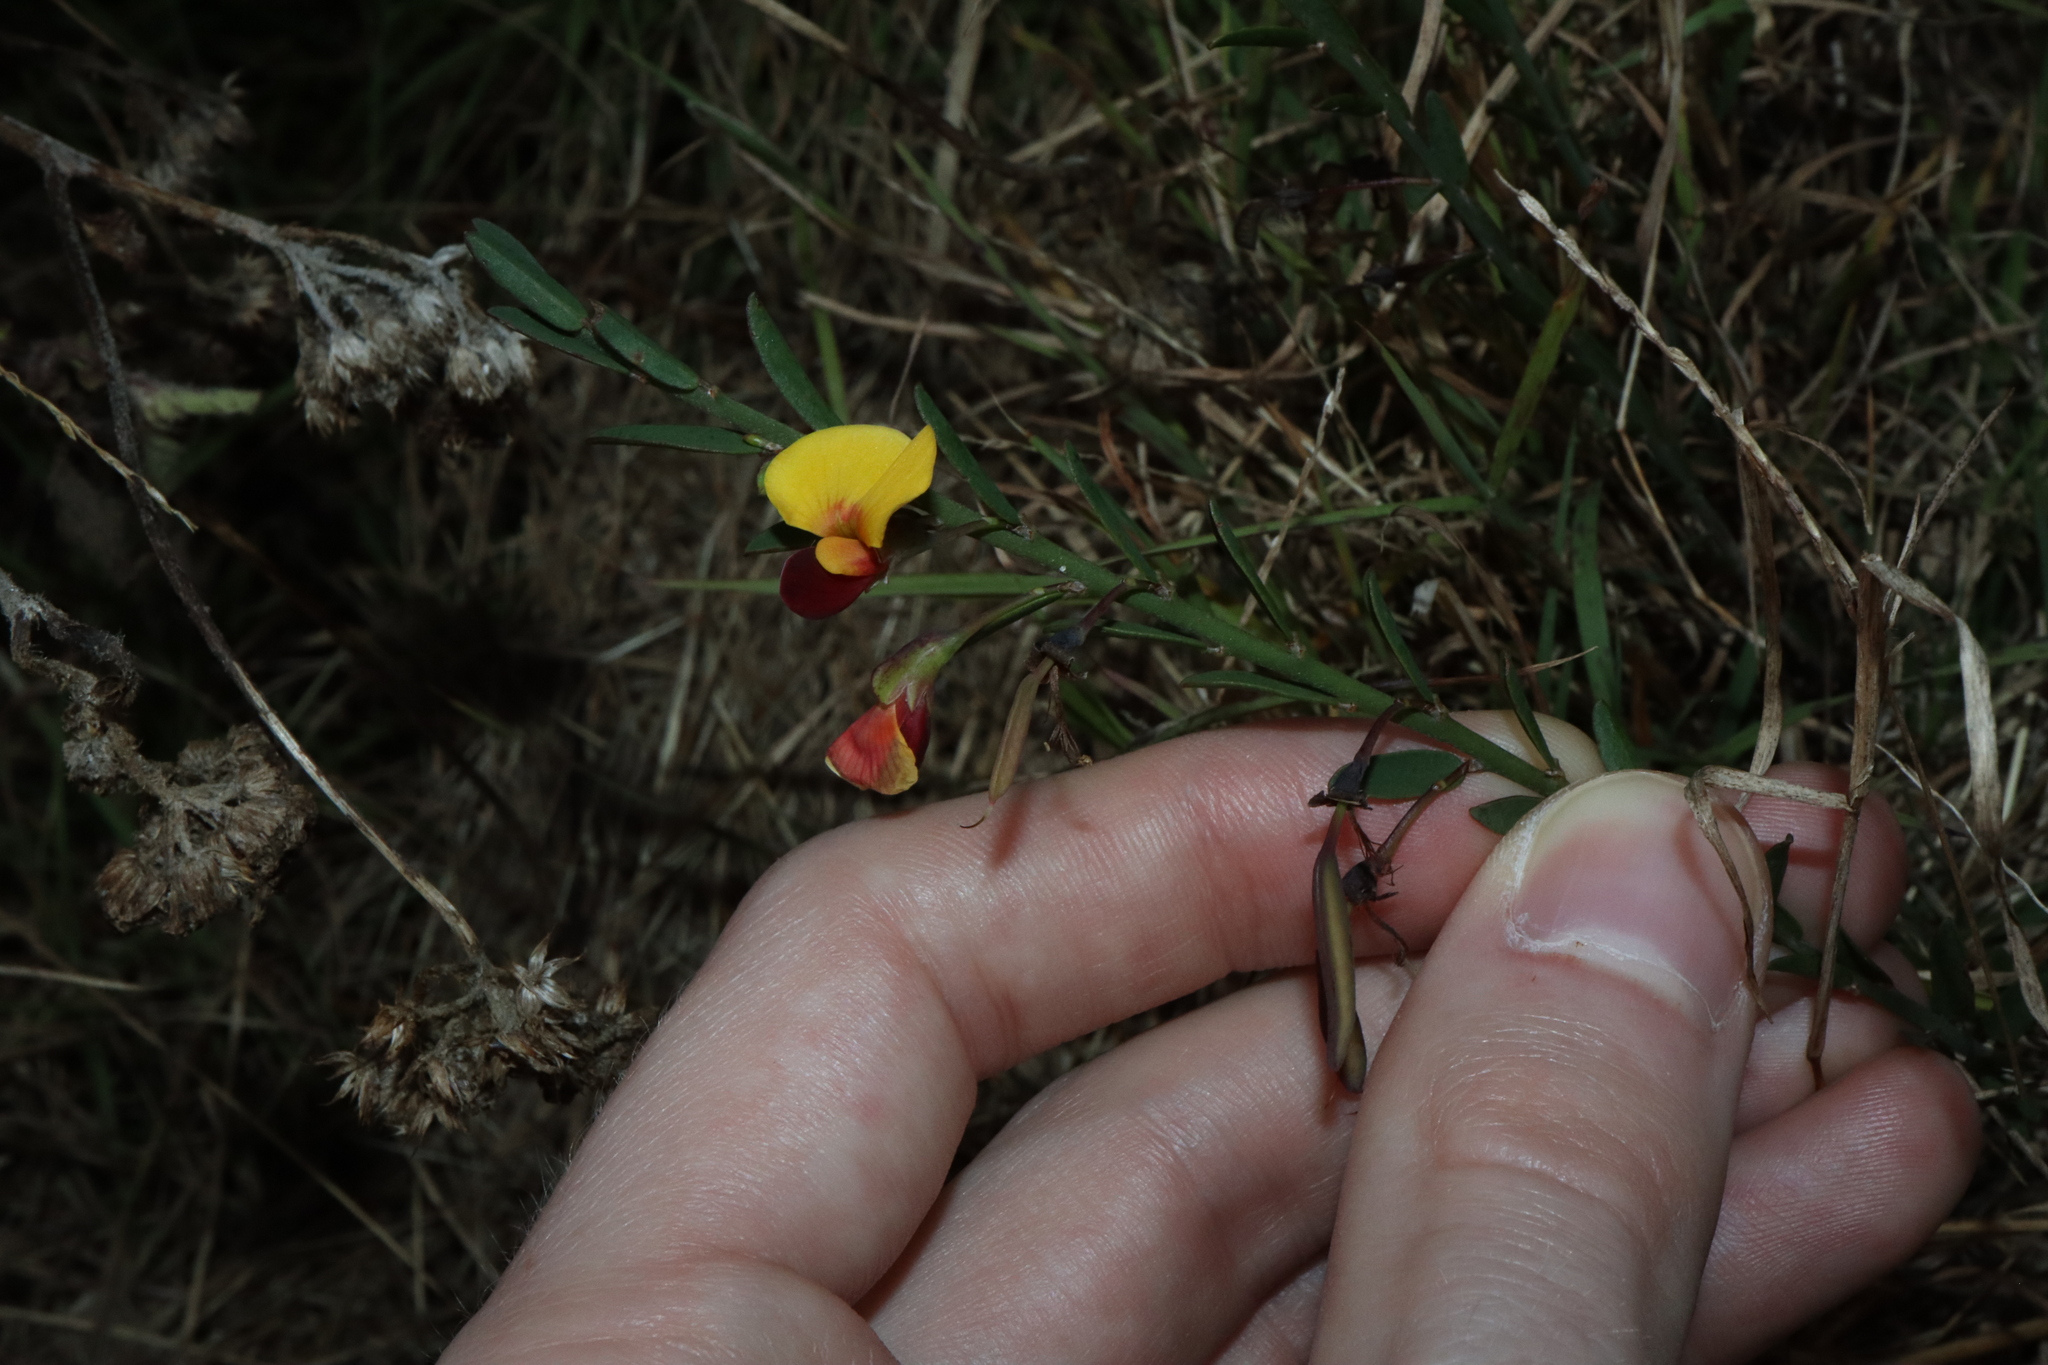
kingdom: Plantae
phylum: Tracheophyta
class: Magnoliopsida
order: Fabales
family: Fabaceae
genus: Bossiaea
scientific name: Bossiaea heterophylla
